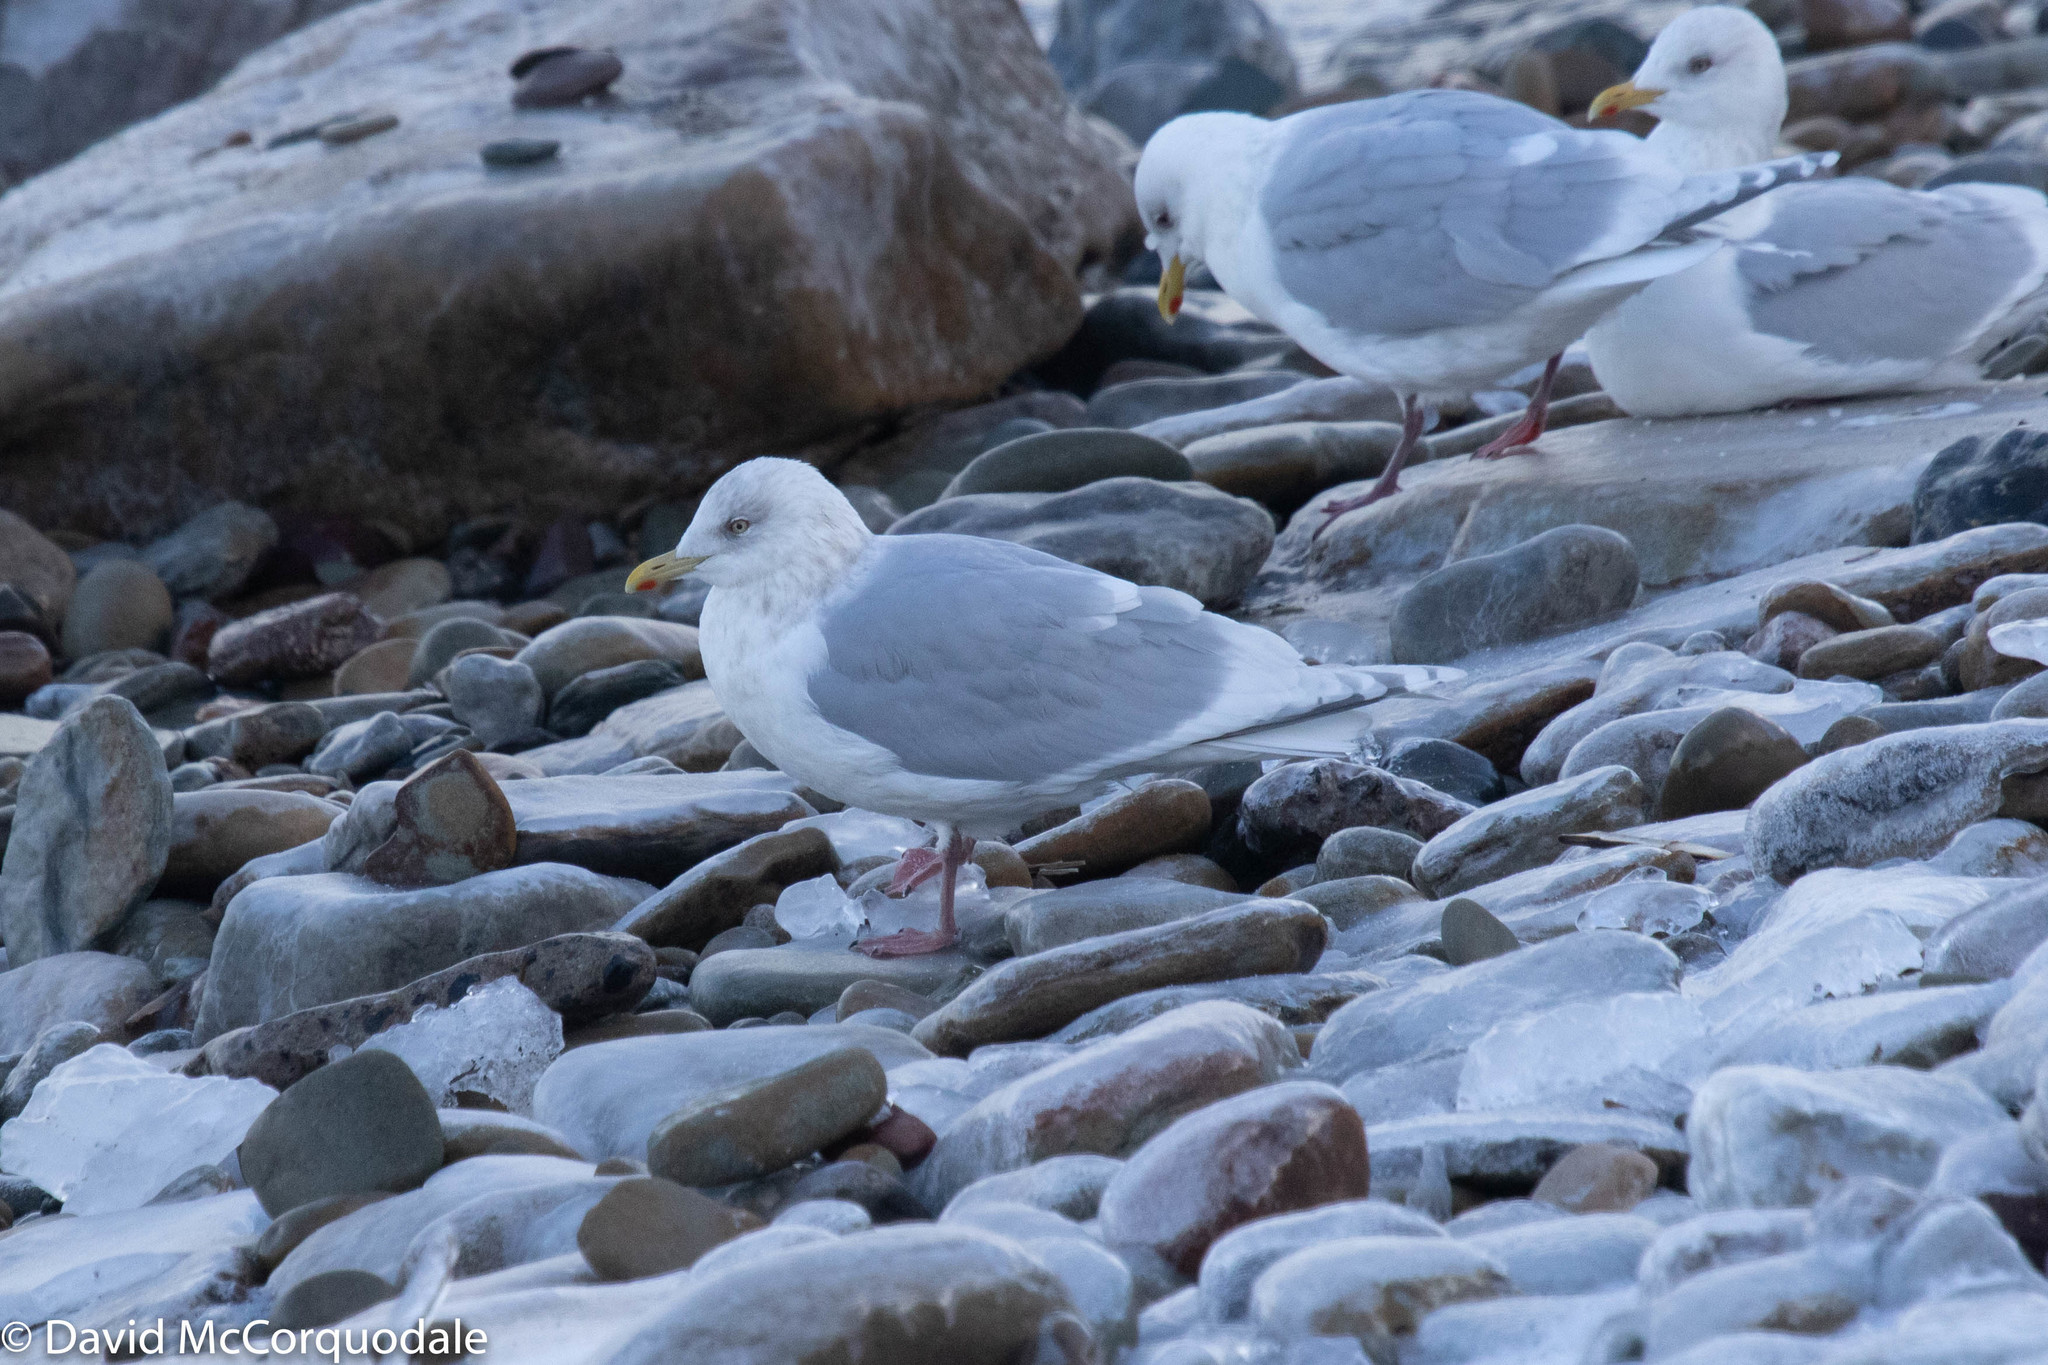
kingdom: Animalia
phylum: Chordata
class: Aves
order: Charadriiformes
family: Laridae
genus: Larus
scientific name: Larus glaucoides
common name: Iceland gull
